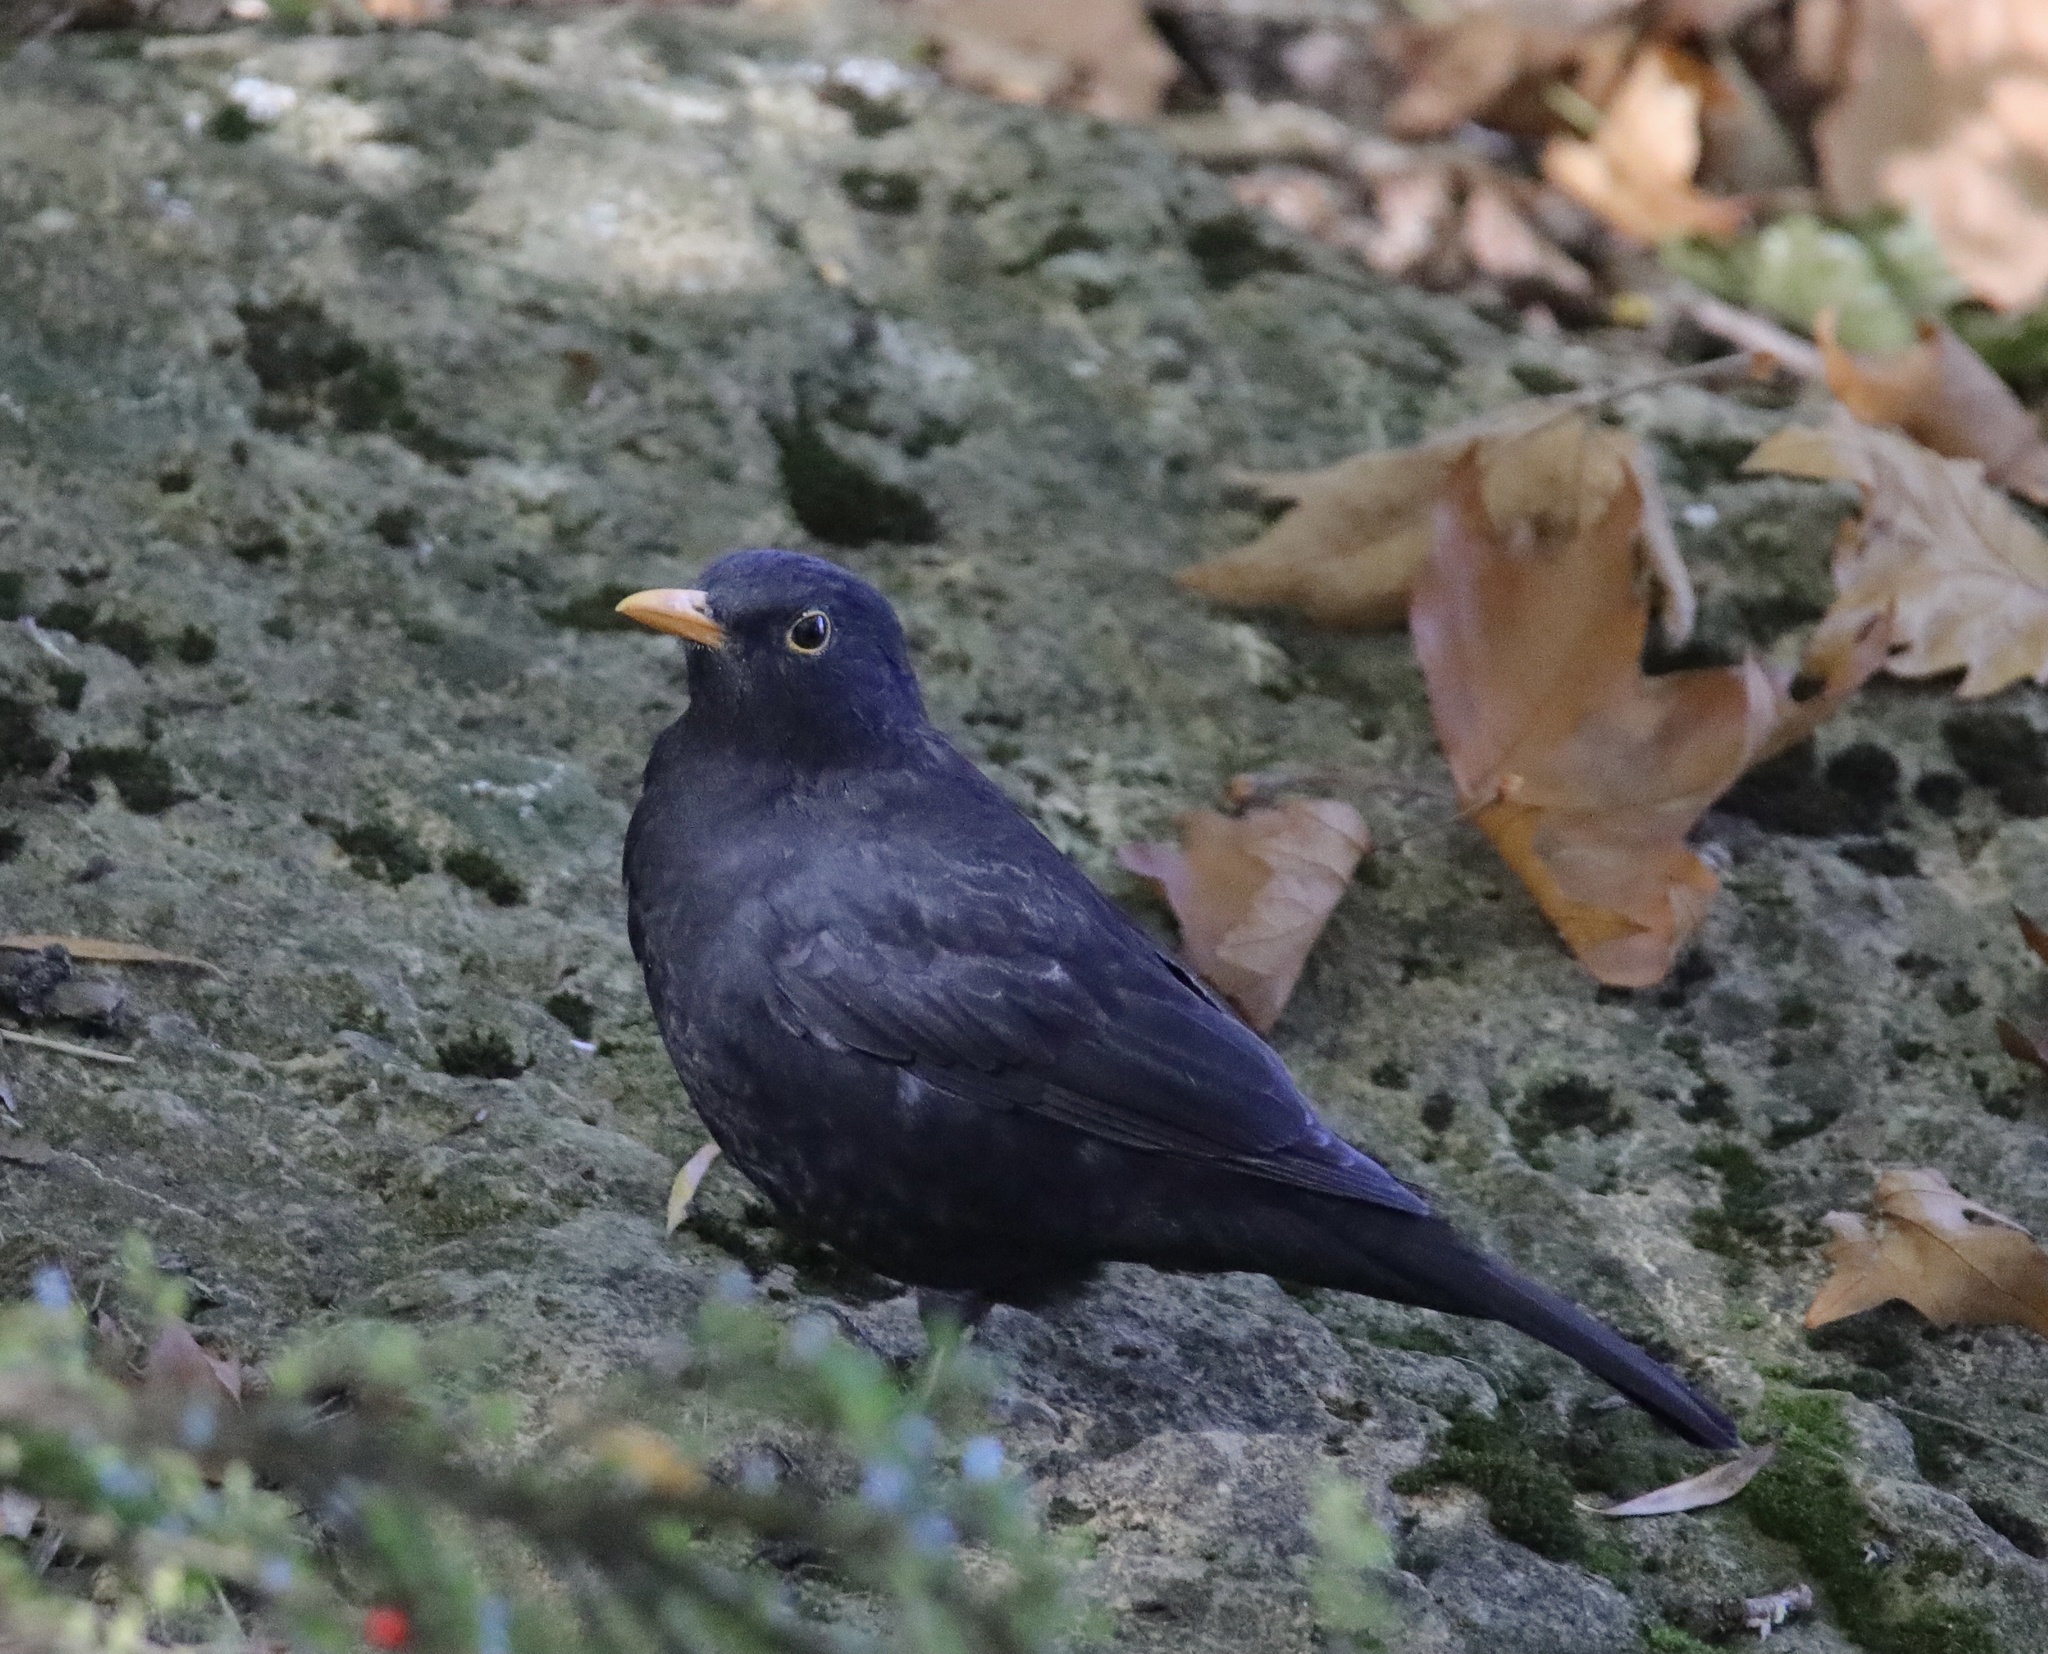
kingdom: Animalia
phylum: Chordata
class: Aves
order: Passeriformes
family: Turdidae
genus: Turdus
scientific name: Turdus merula
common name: Common blackbird
